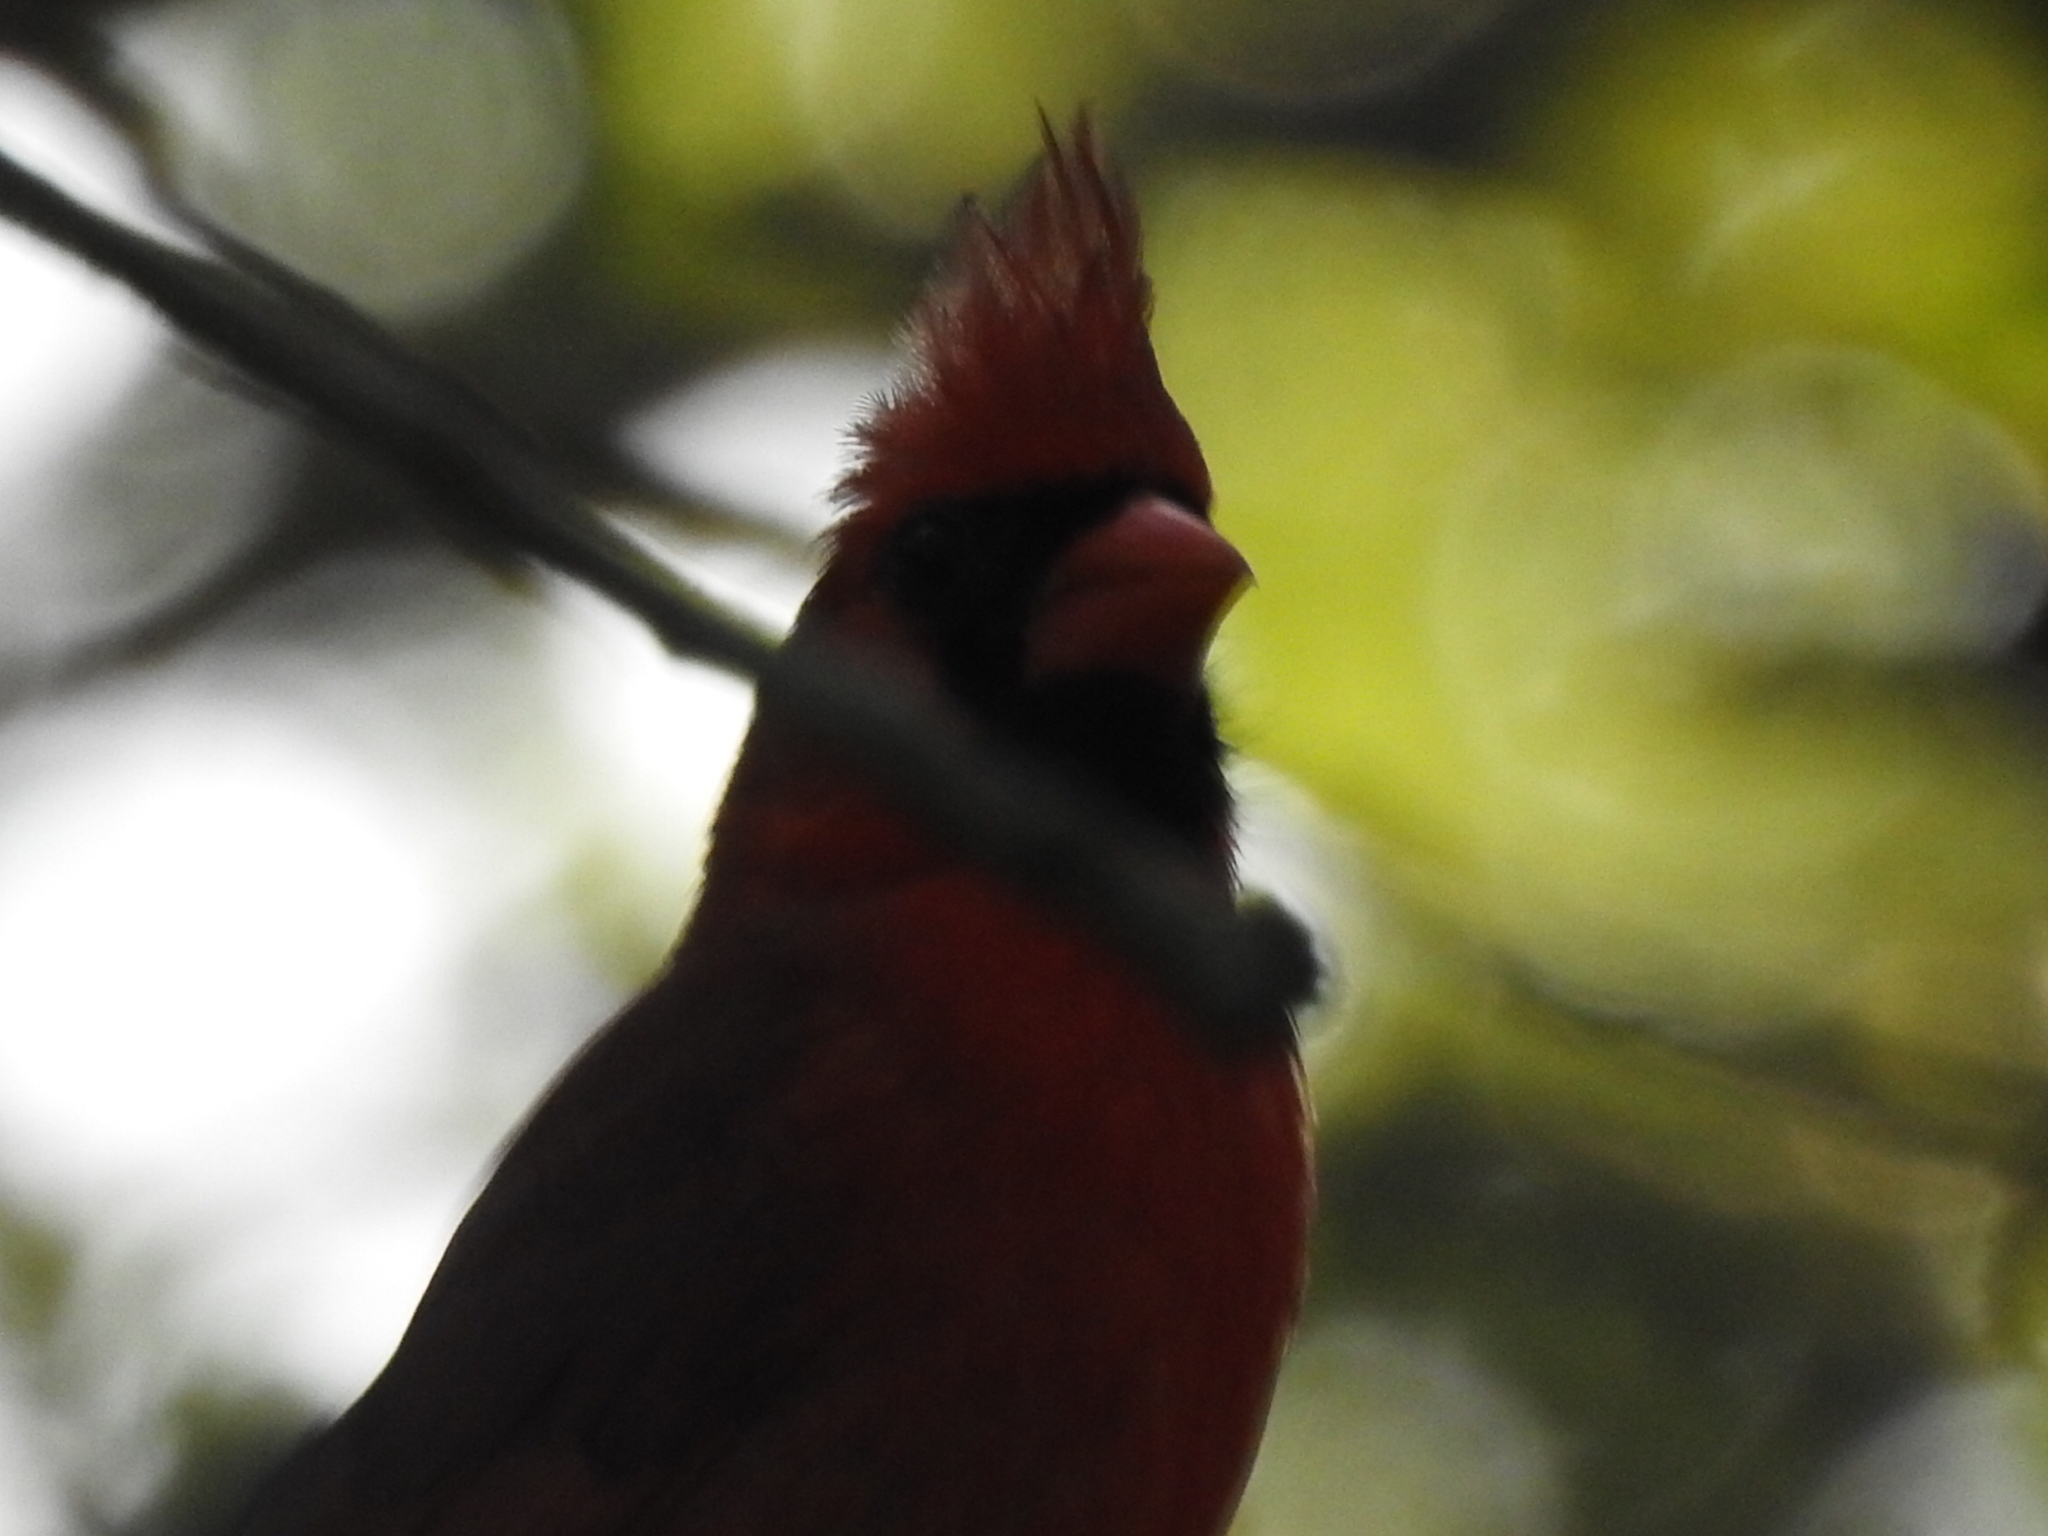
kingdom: Animalia
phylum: Chordata
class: Aves
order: Passeriformes
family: Cardinalidae
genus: Cardinalis
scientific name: Cardinalis cardinalis
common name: Northern cardinal
